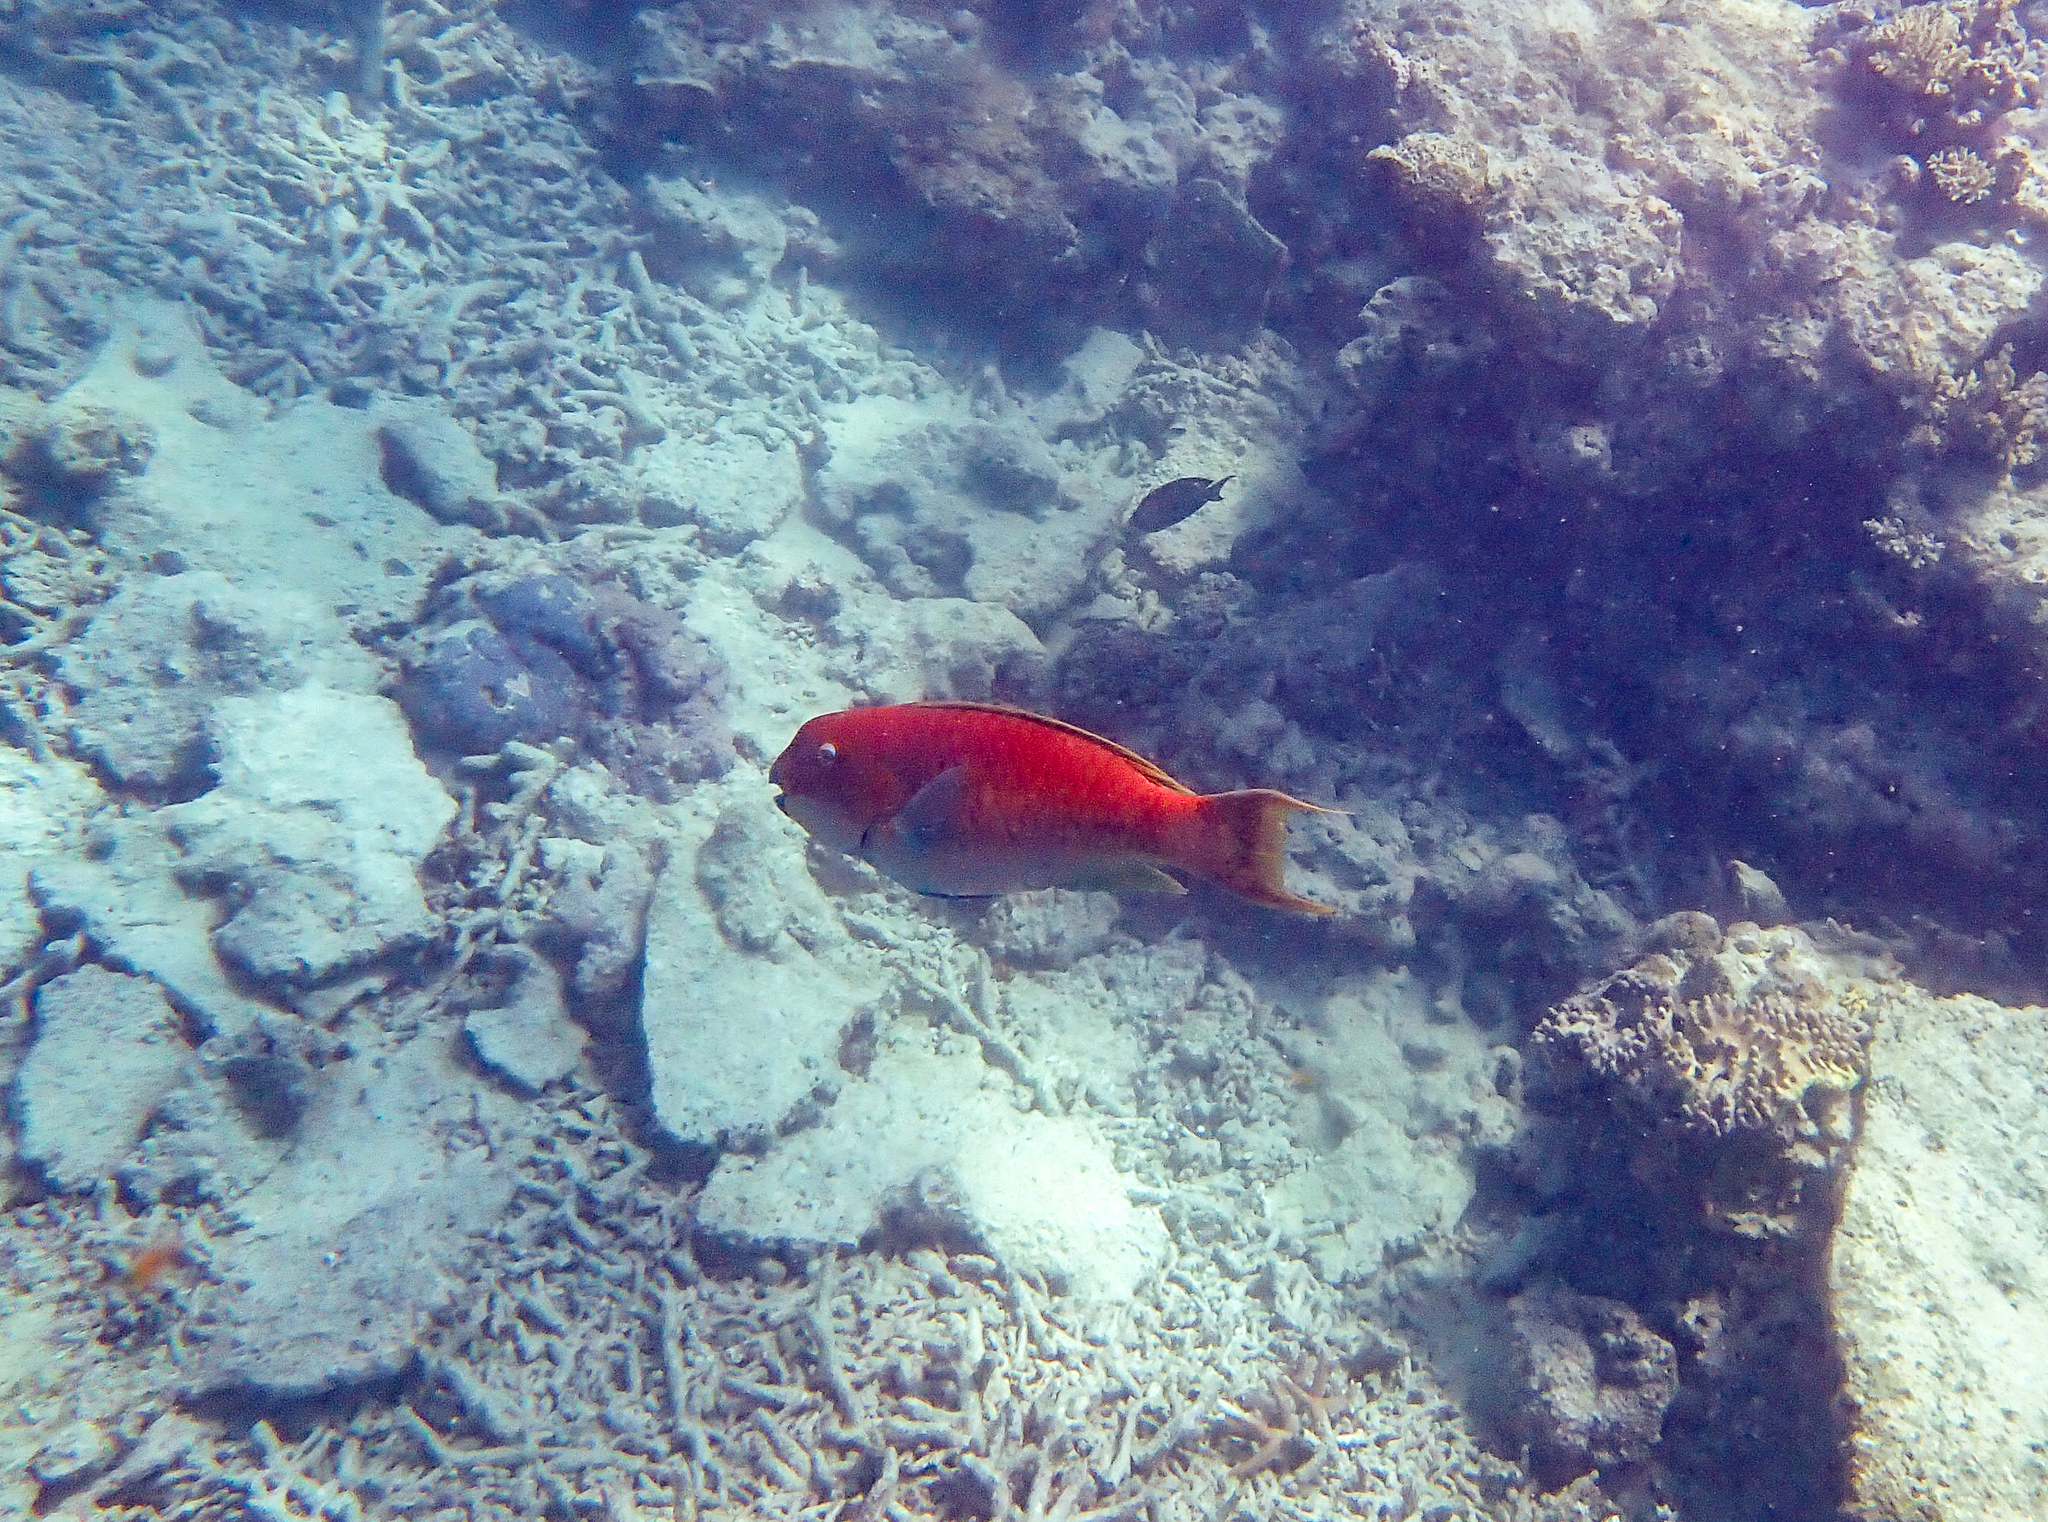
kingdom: Animalia
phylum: Chordata
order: Perciformes
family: Scaridae
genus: Chlorurus
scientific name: Chlorurus microrhinos
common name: Steephead parrotfish
